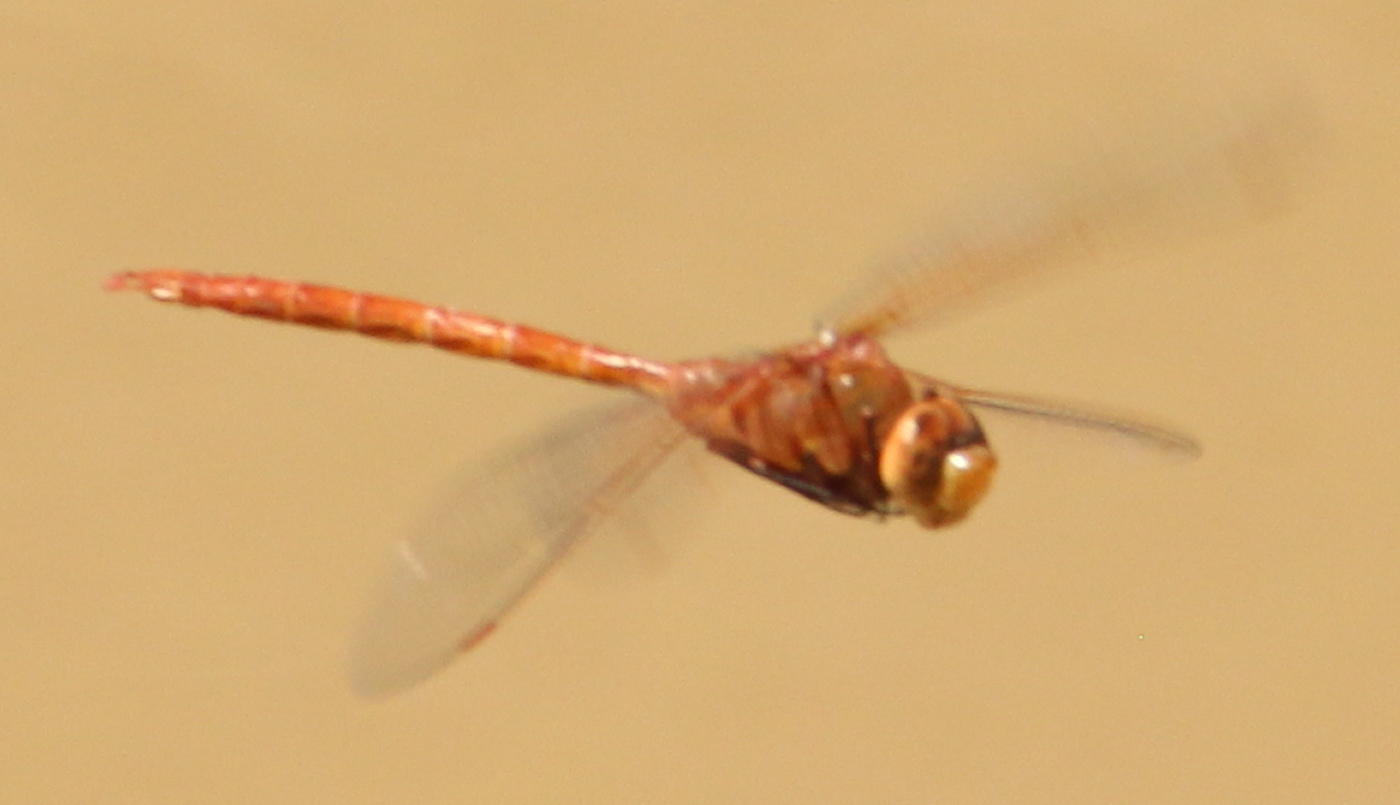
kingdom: Animalia
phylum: Arthropoda
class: Insecta
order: Odonata
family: Aeshnidae
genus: Anax
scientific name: Anax speratus
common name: Orange emperor
